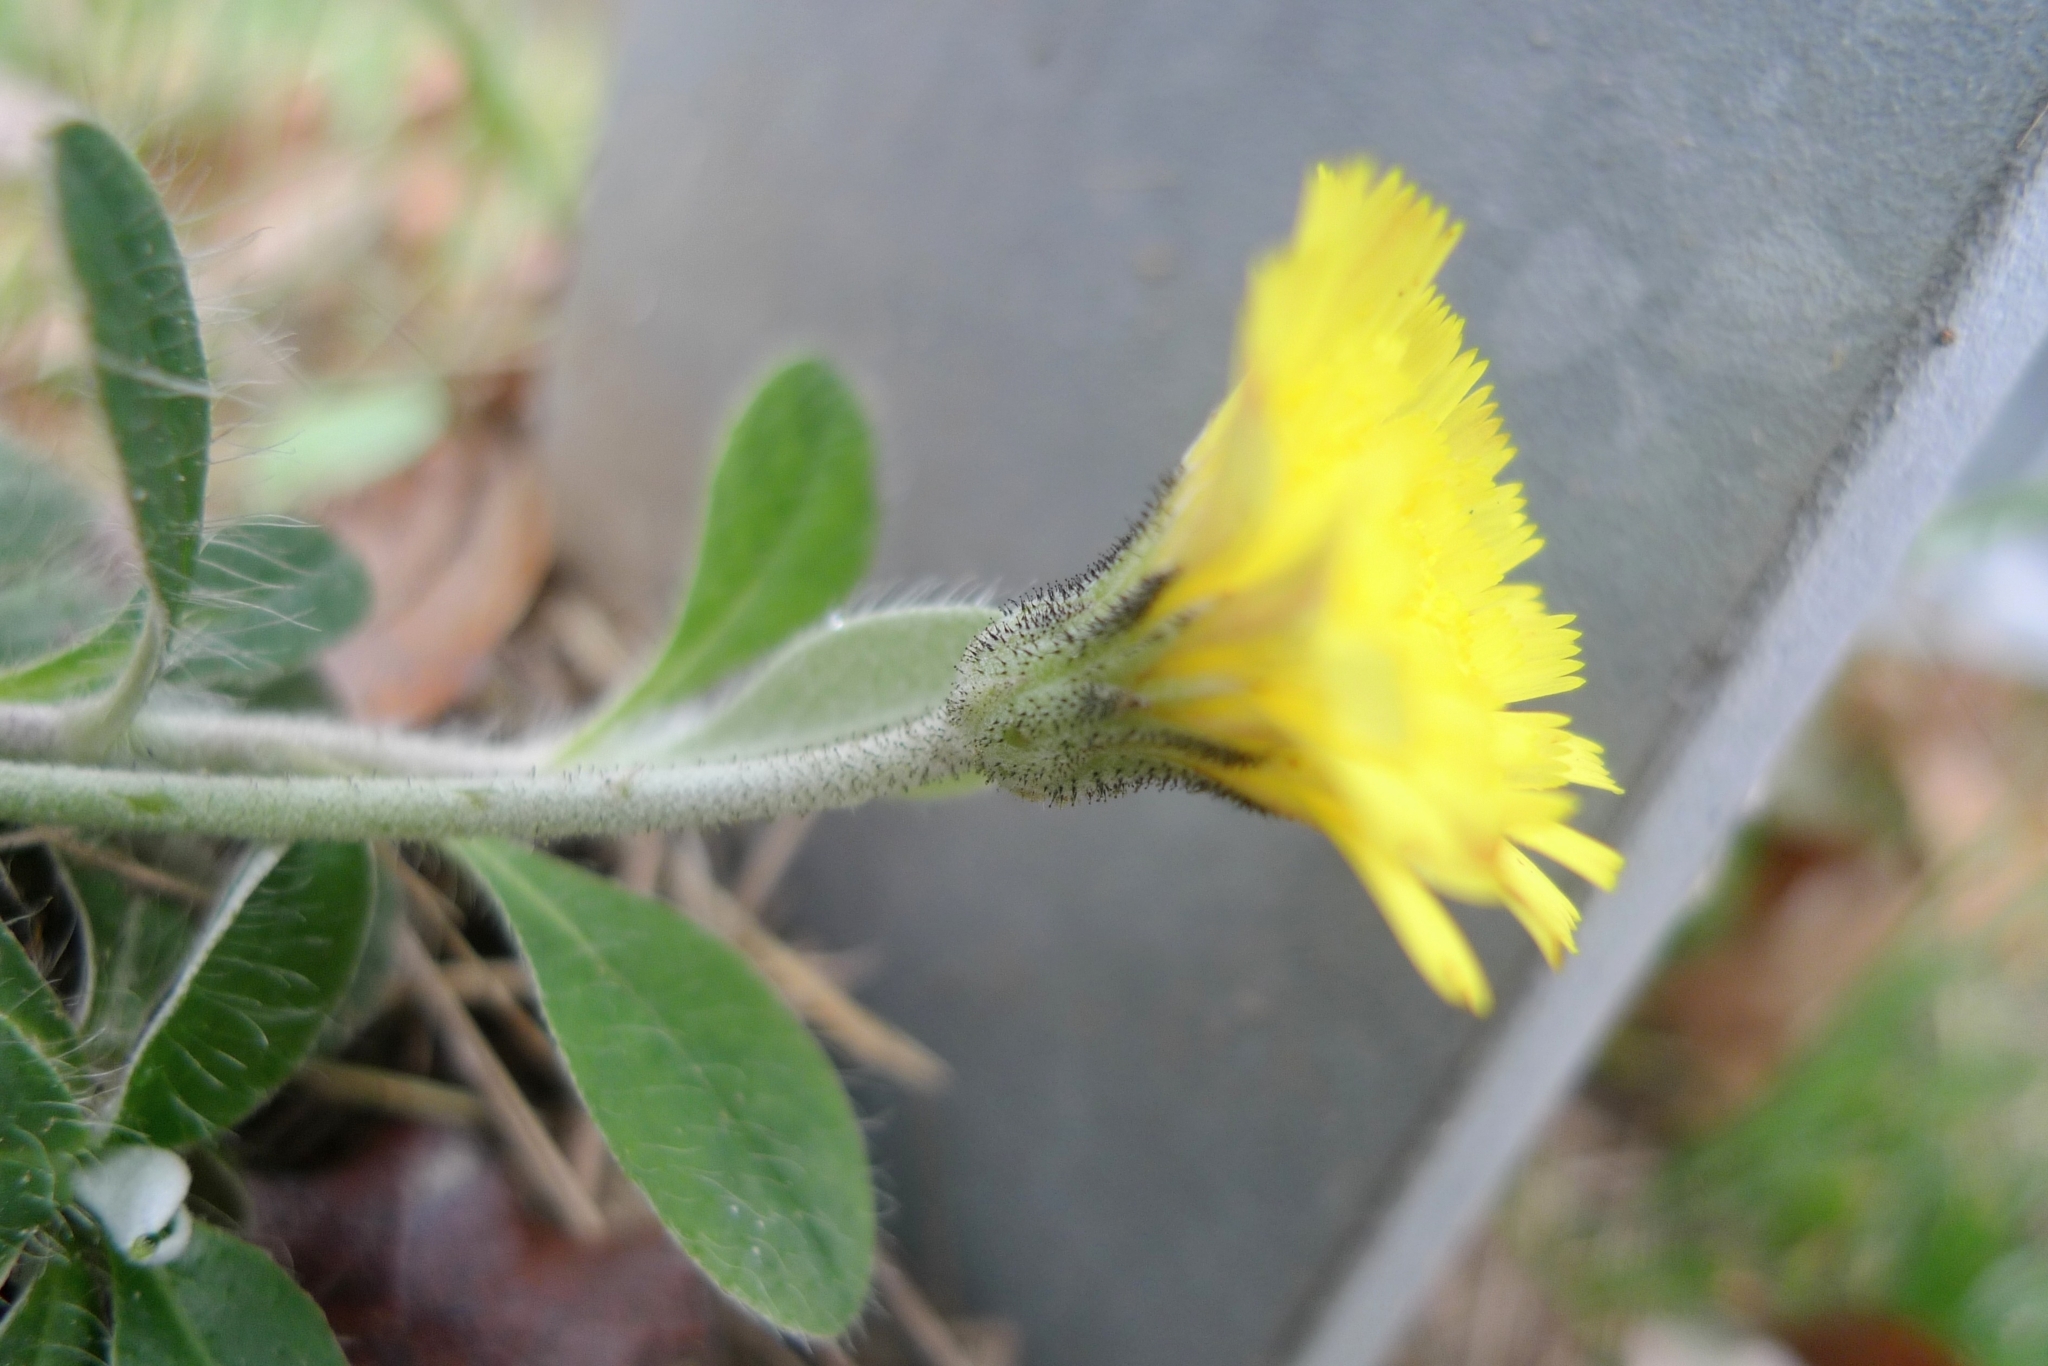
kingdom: Plantae
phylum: Tracheophyta
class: Magnoliopsida
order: Asterales
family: Asteraceae
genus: Pilosella
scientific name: Pilosella officinarum
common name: Mouse-ear hawkweed
